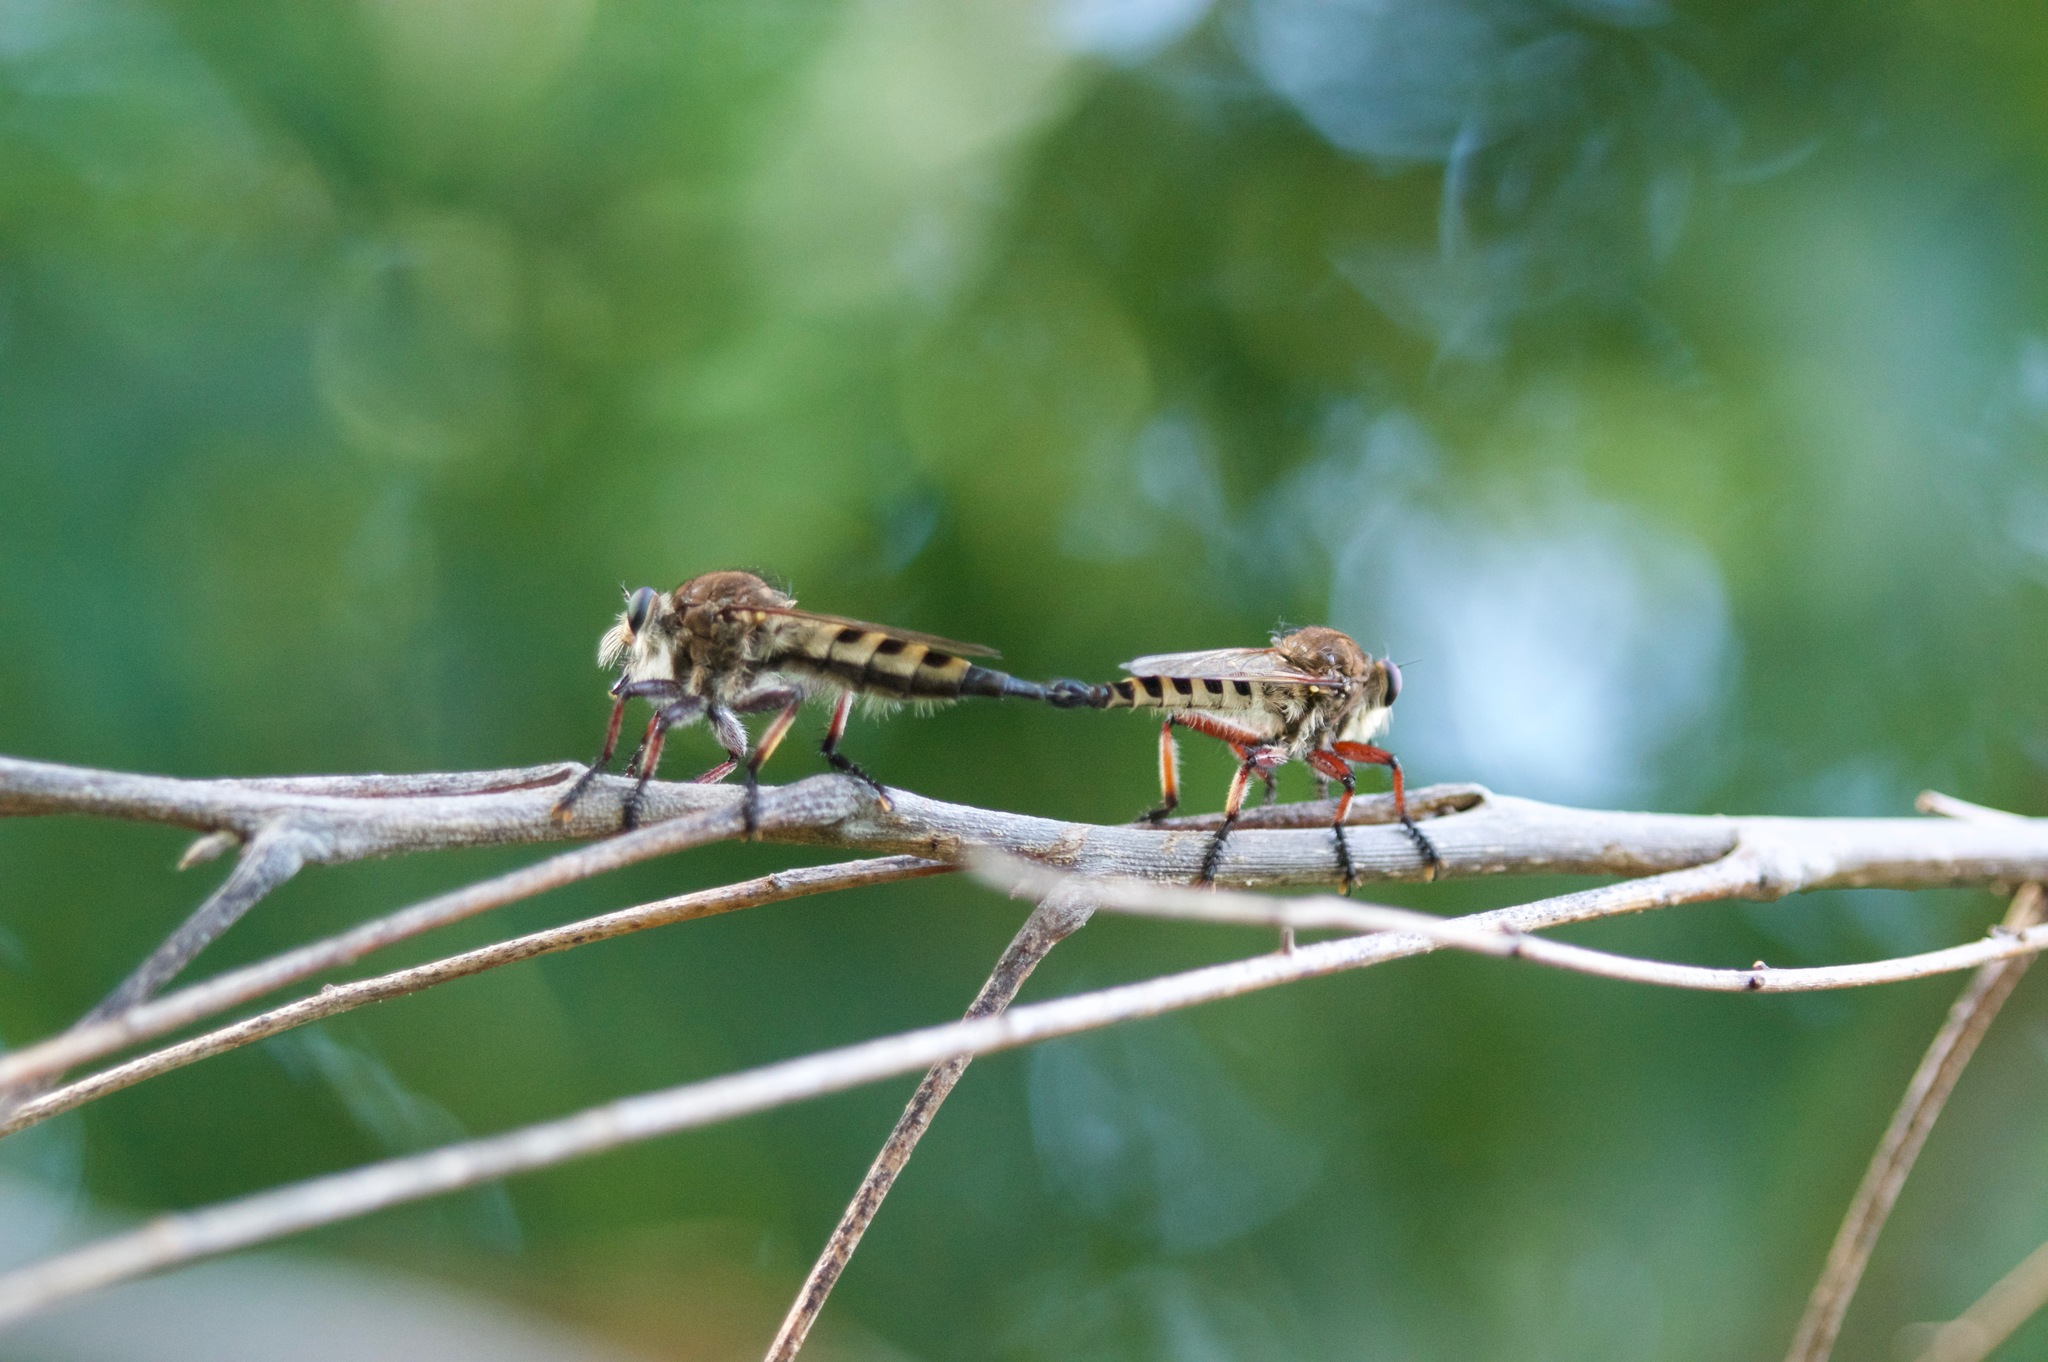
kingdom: Animalia
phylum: Arthropoda
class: Insecta
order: Diptera
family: Asilidae
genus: Promachus
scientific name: Promachus hinei
